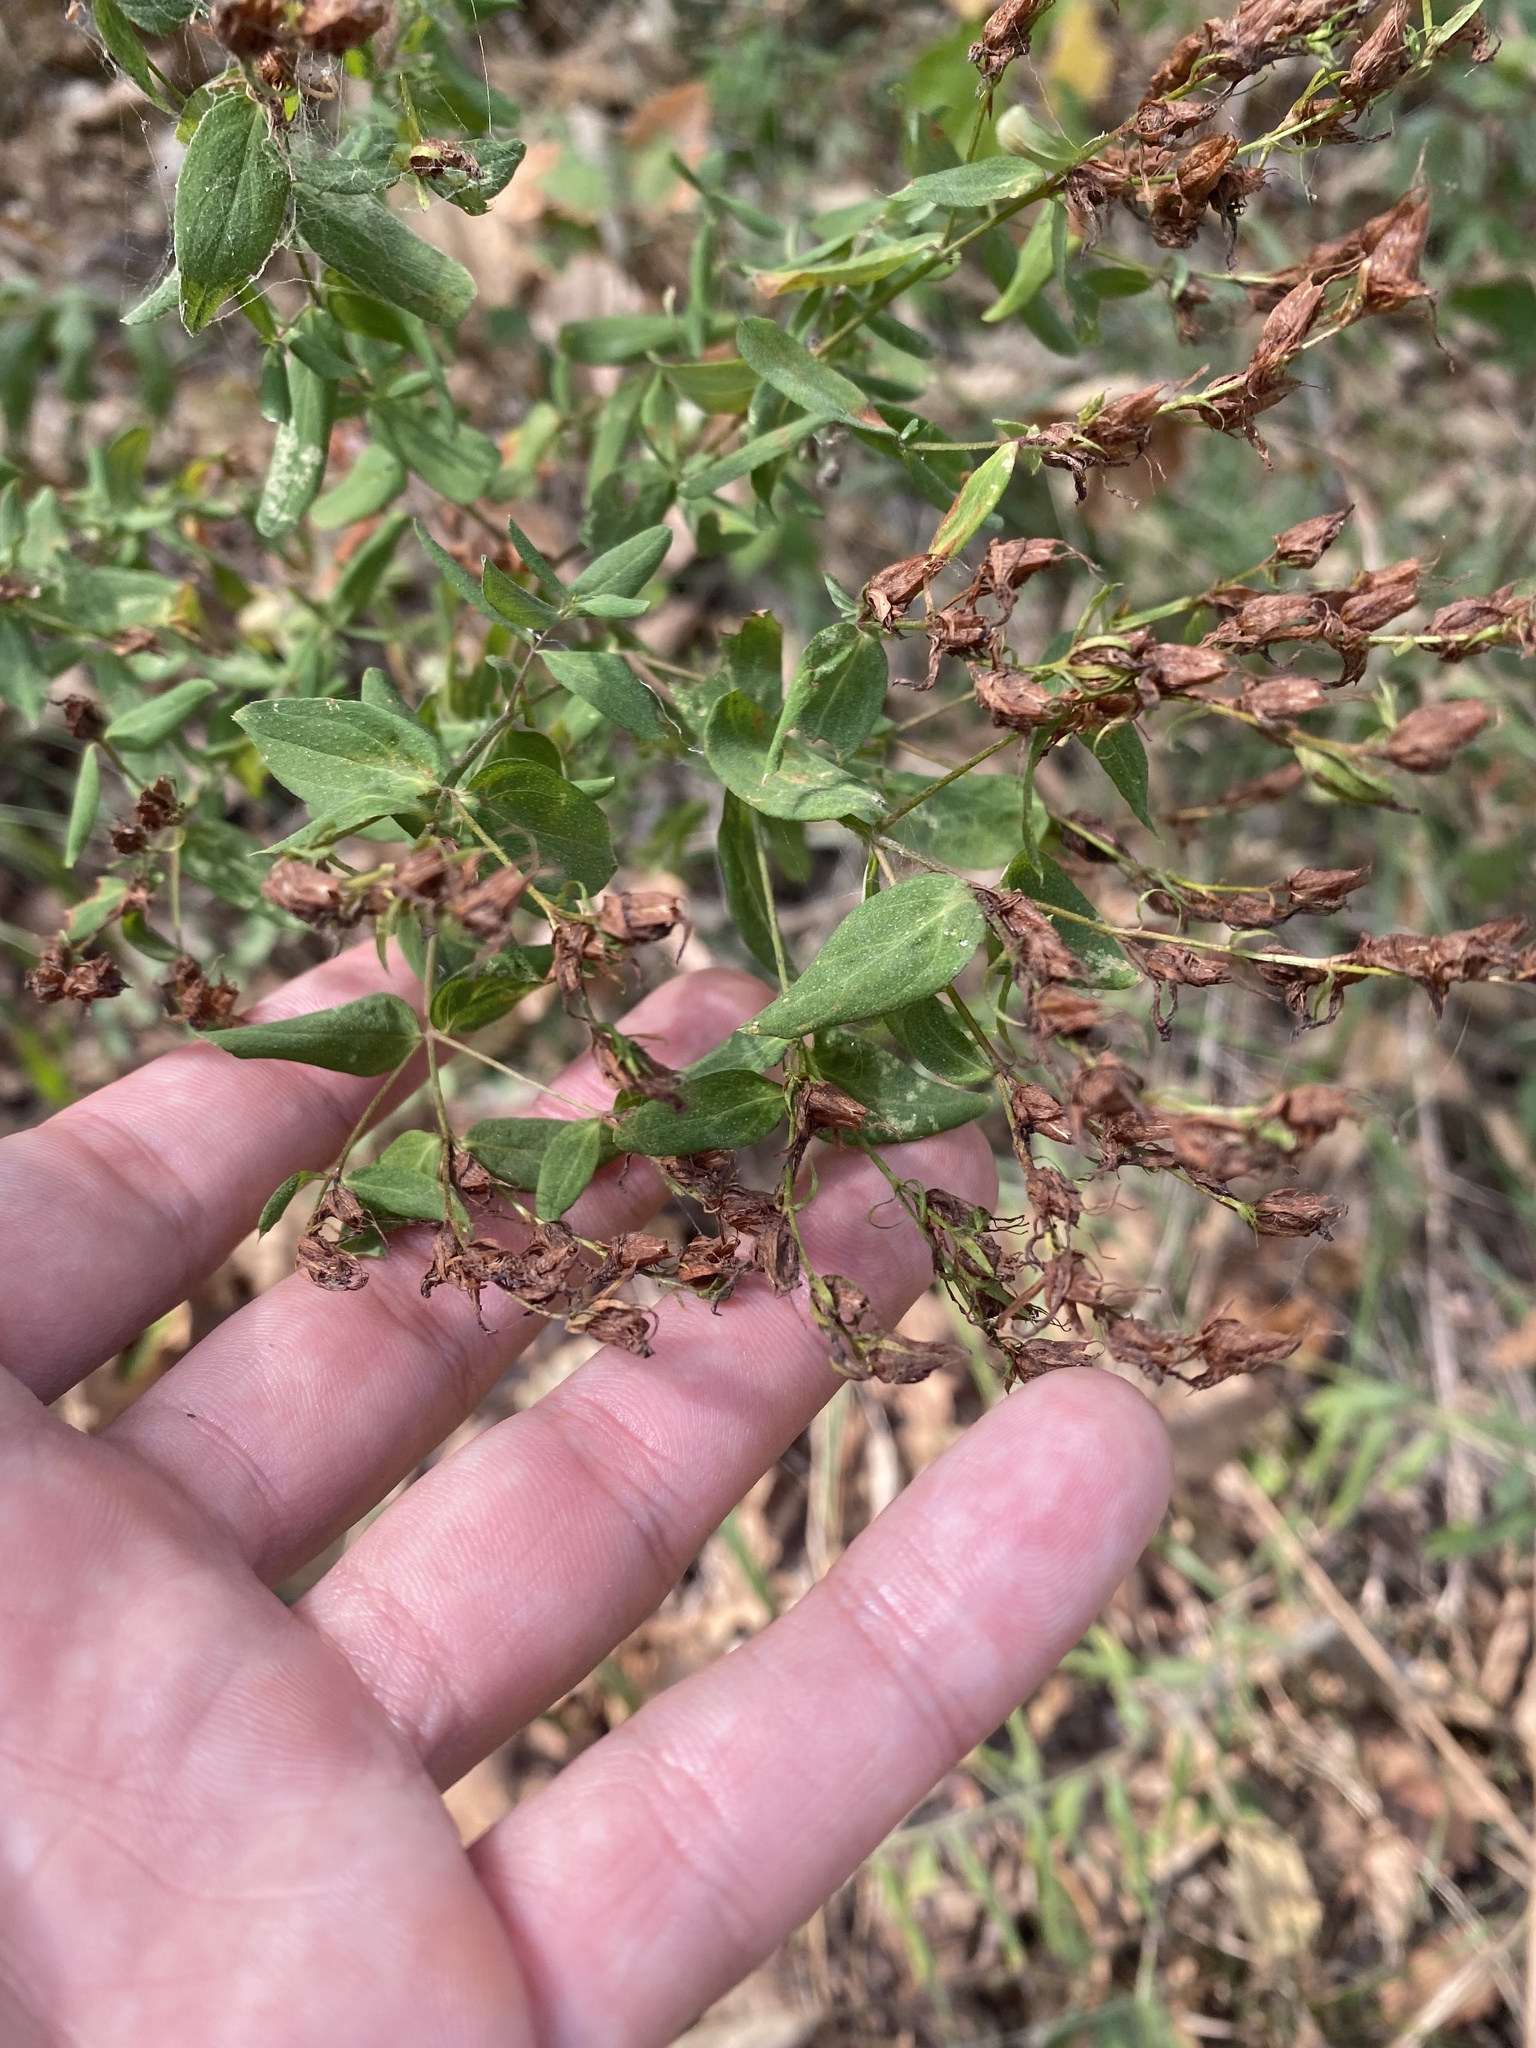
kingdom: Plantae
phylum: Tracheophyta
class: Magnoliopsida
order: Malpighiales
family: Hypericaceae
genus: Hypericum
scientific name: Hypericum perforatum
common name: Common st. johnswort
